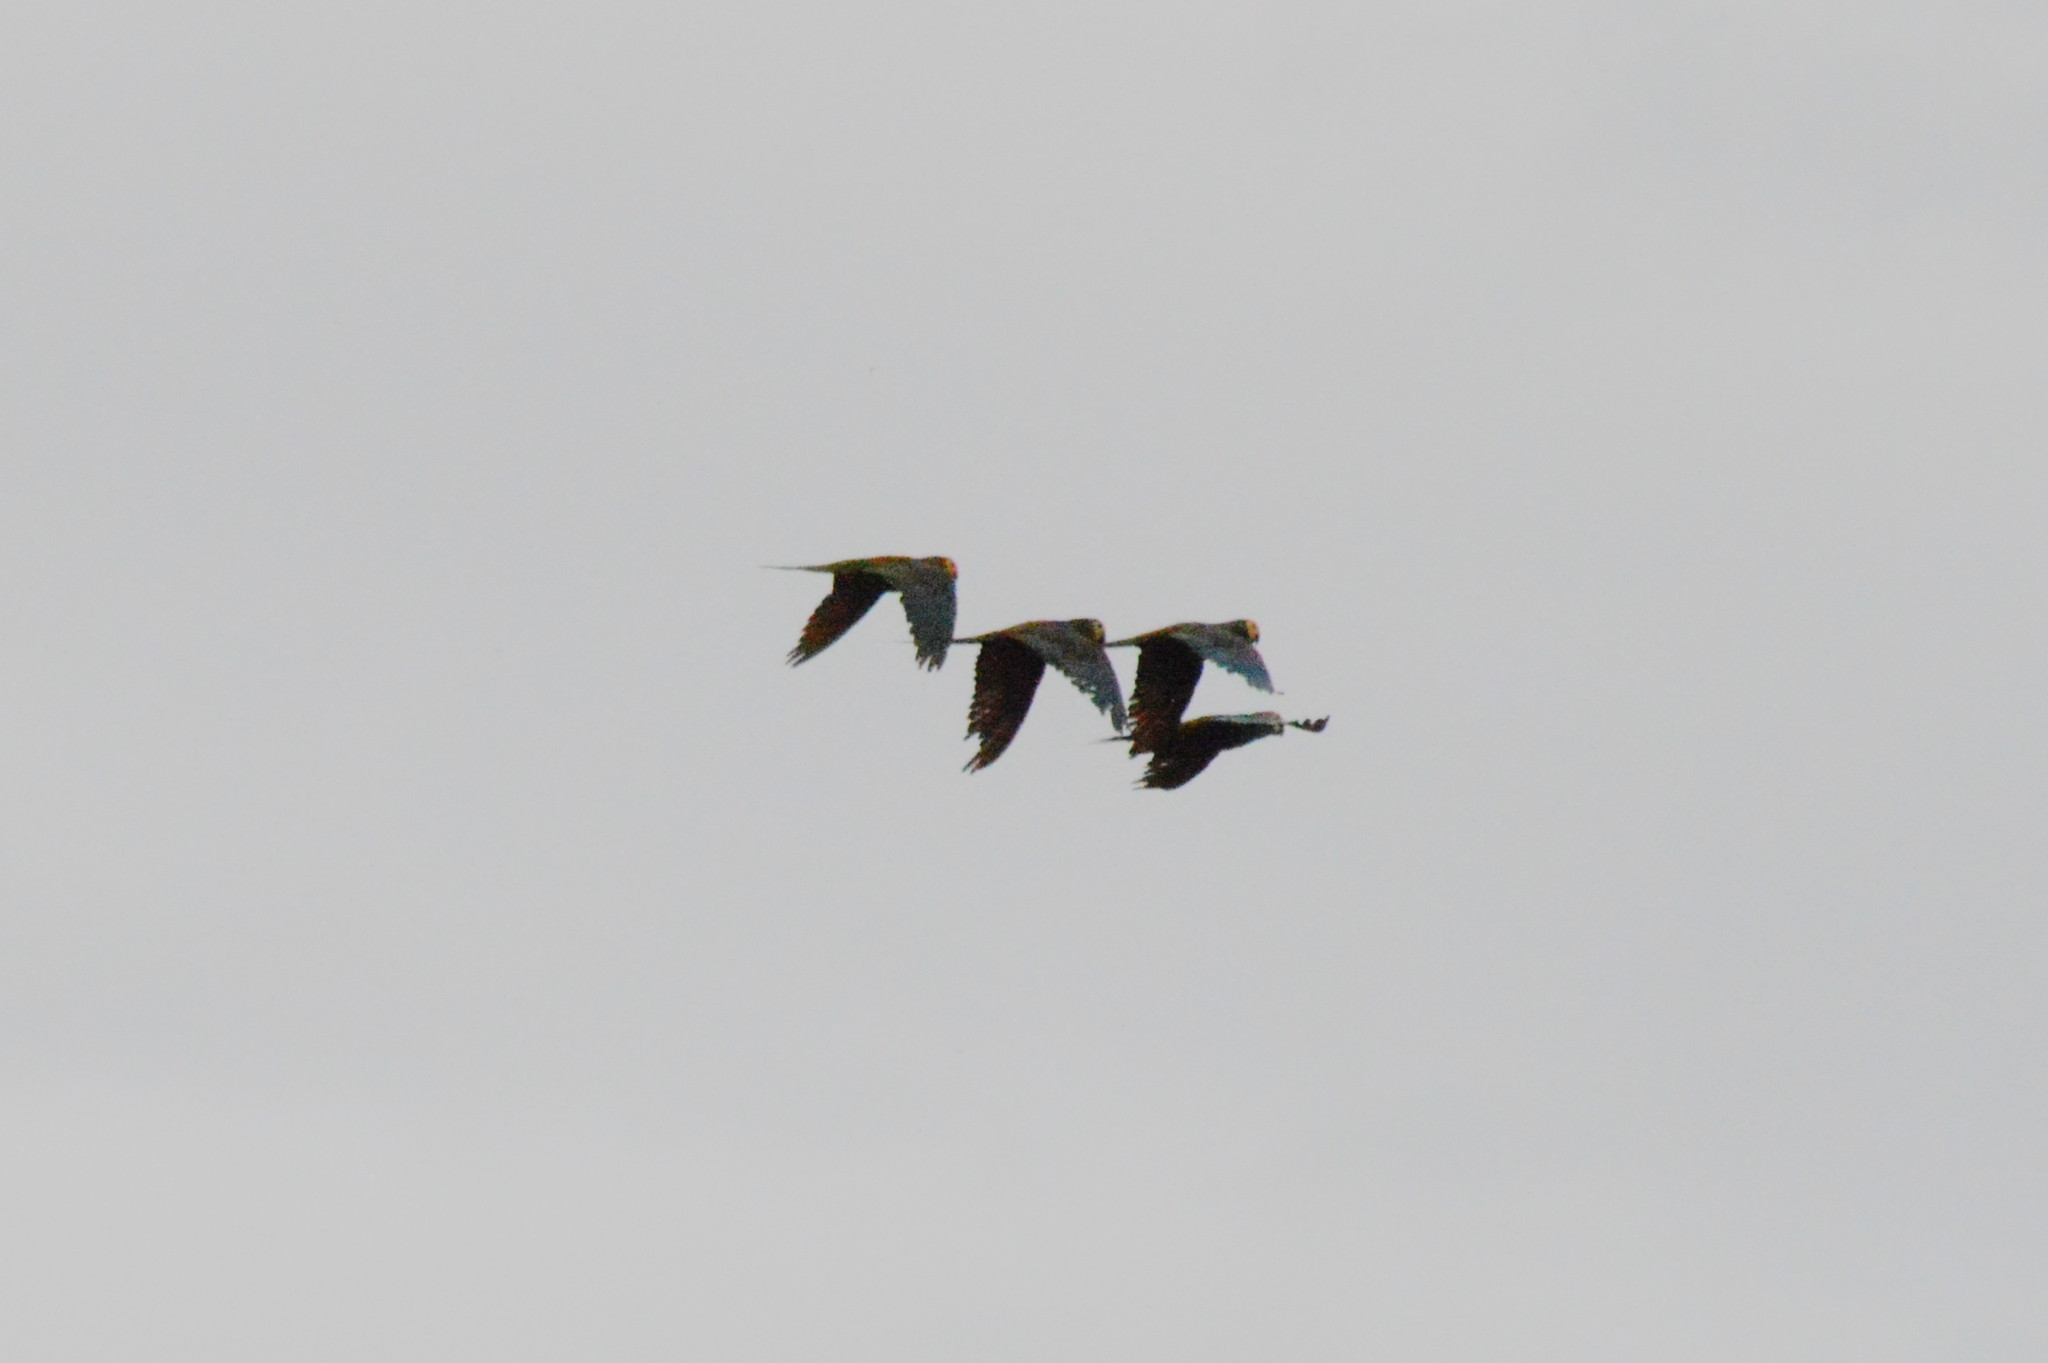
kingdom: Animalia
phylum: Chordata
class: Aves
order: Psittaciformes
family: Psittacidae
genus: Orthopsittaca
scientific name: Orthopsittaca manilata
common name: Red-bellied macaw
